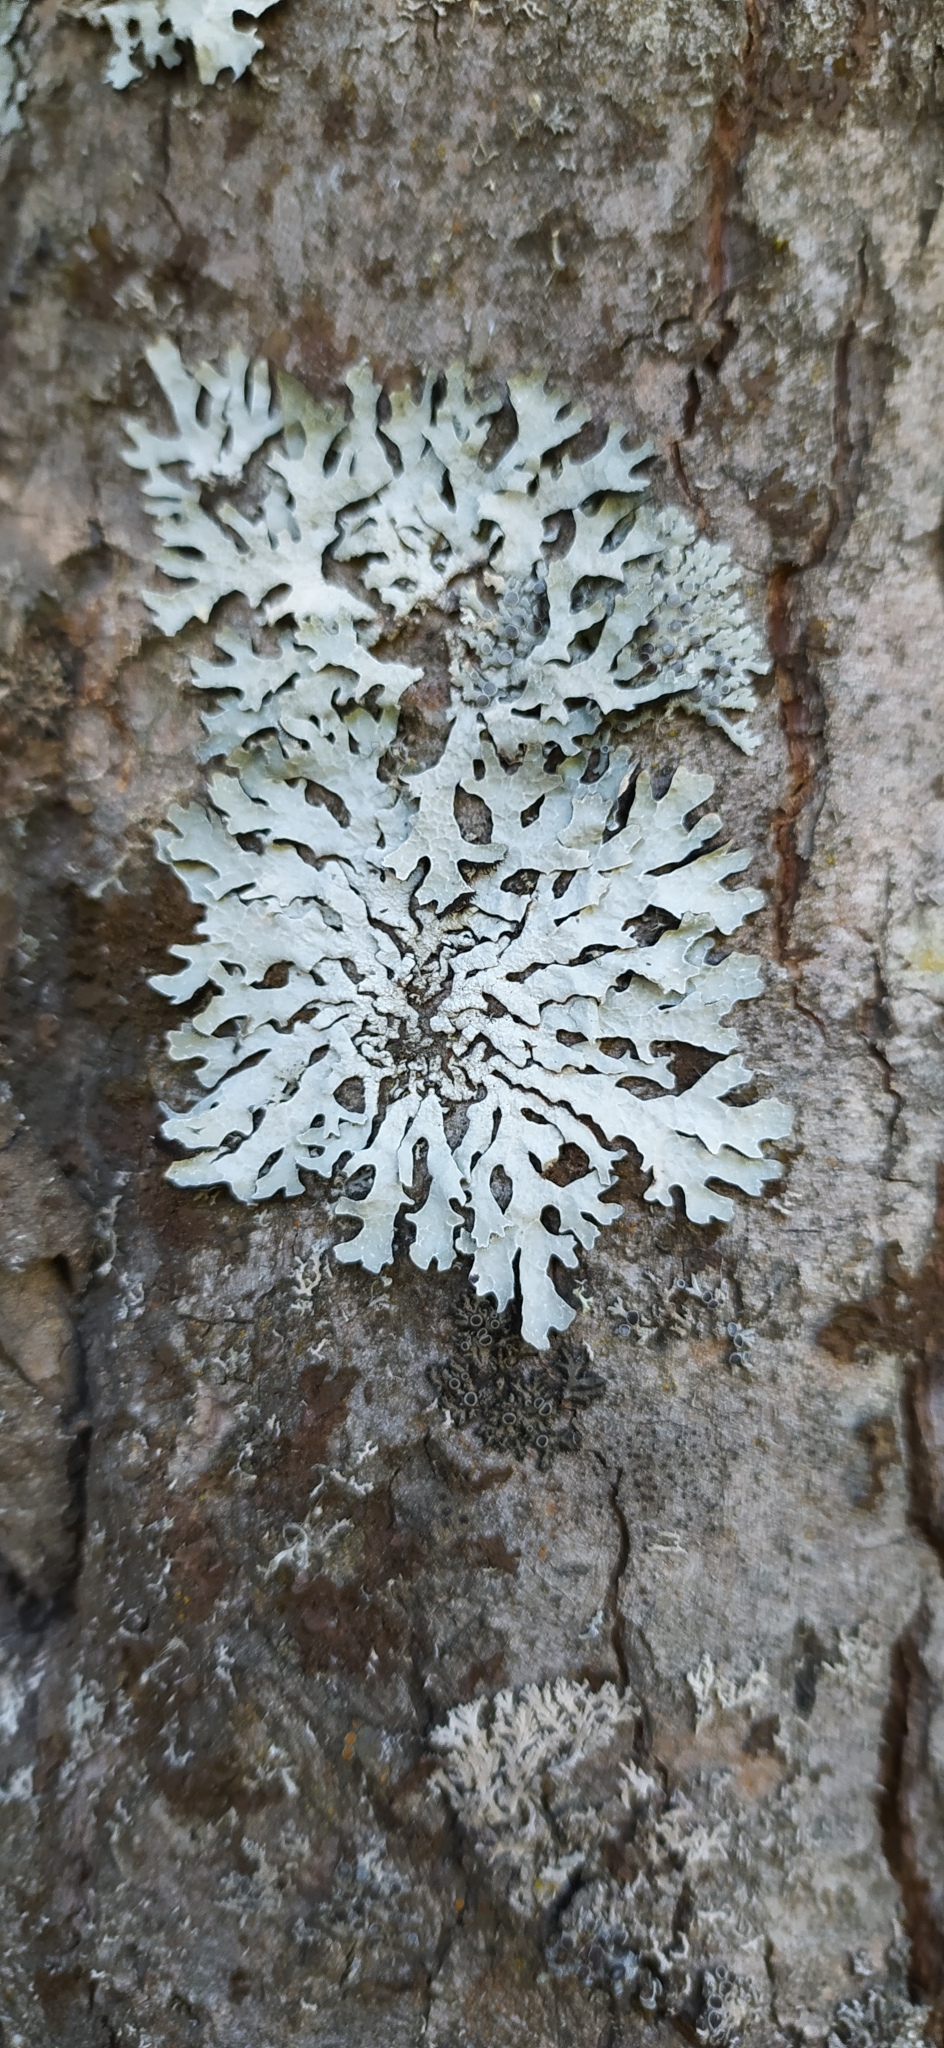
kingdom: Fungi
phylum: Ascomycota
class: Lecanoromycetes
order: Lecanorales
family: Parmeliaceae
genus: Parmelia
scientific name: Parmelia sulcata
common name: Netted shield lichen
